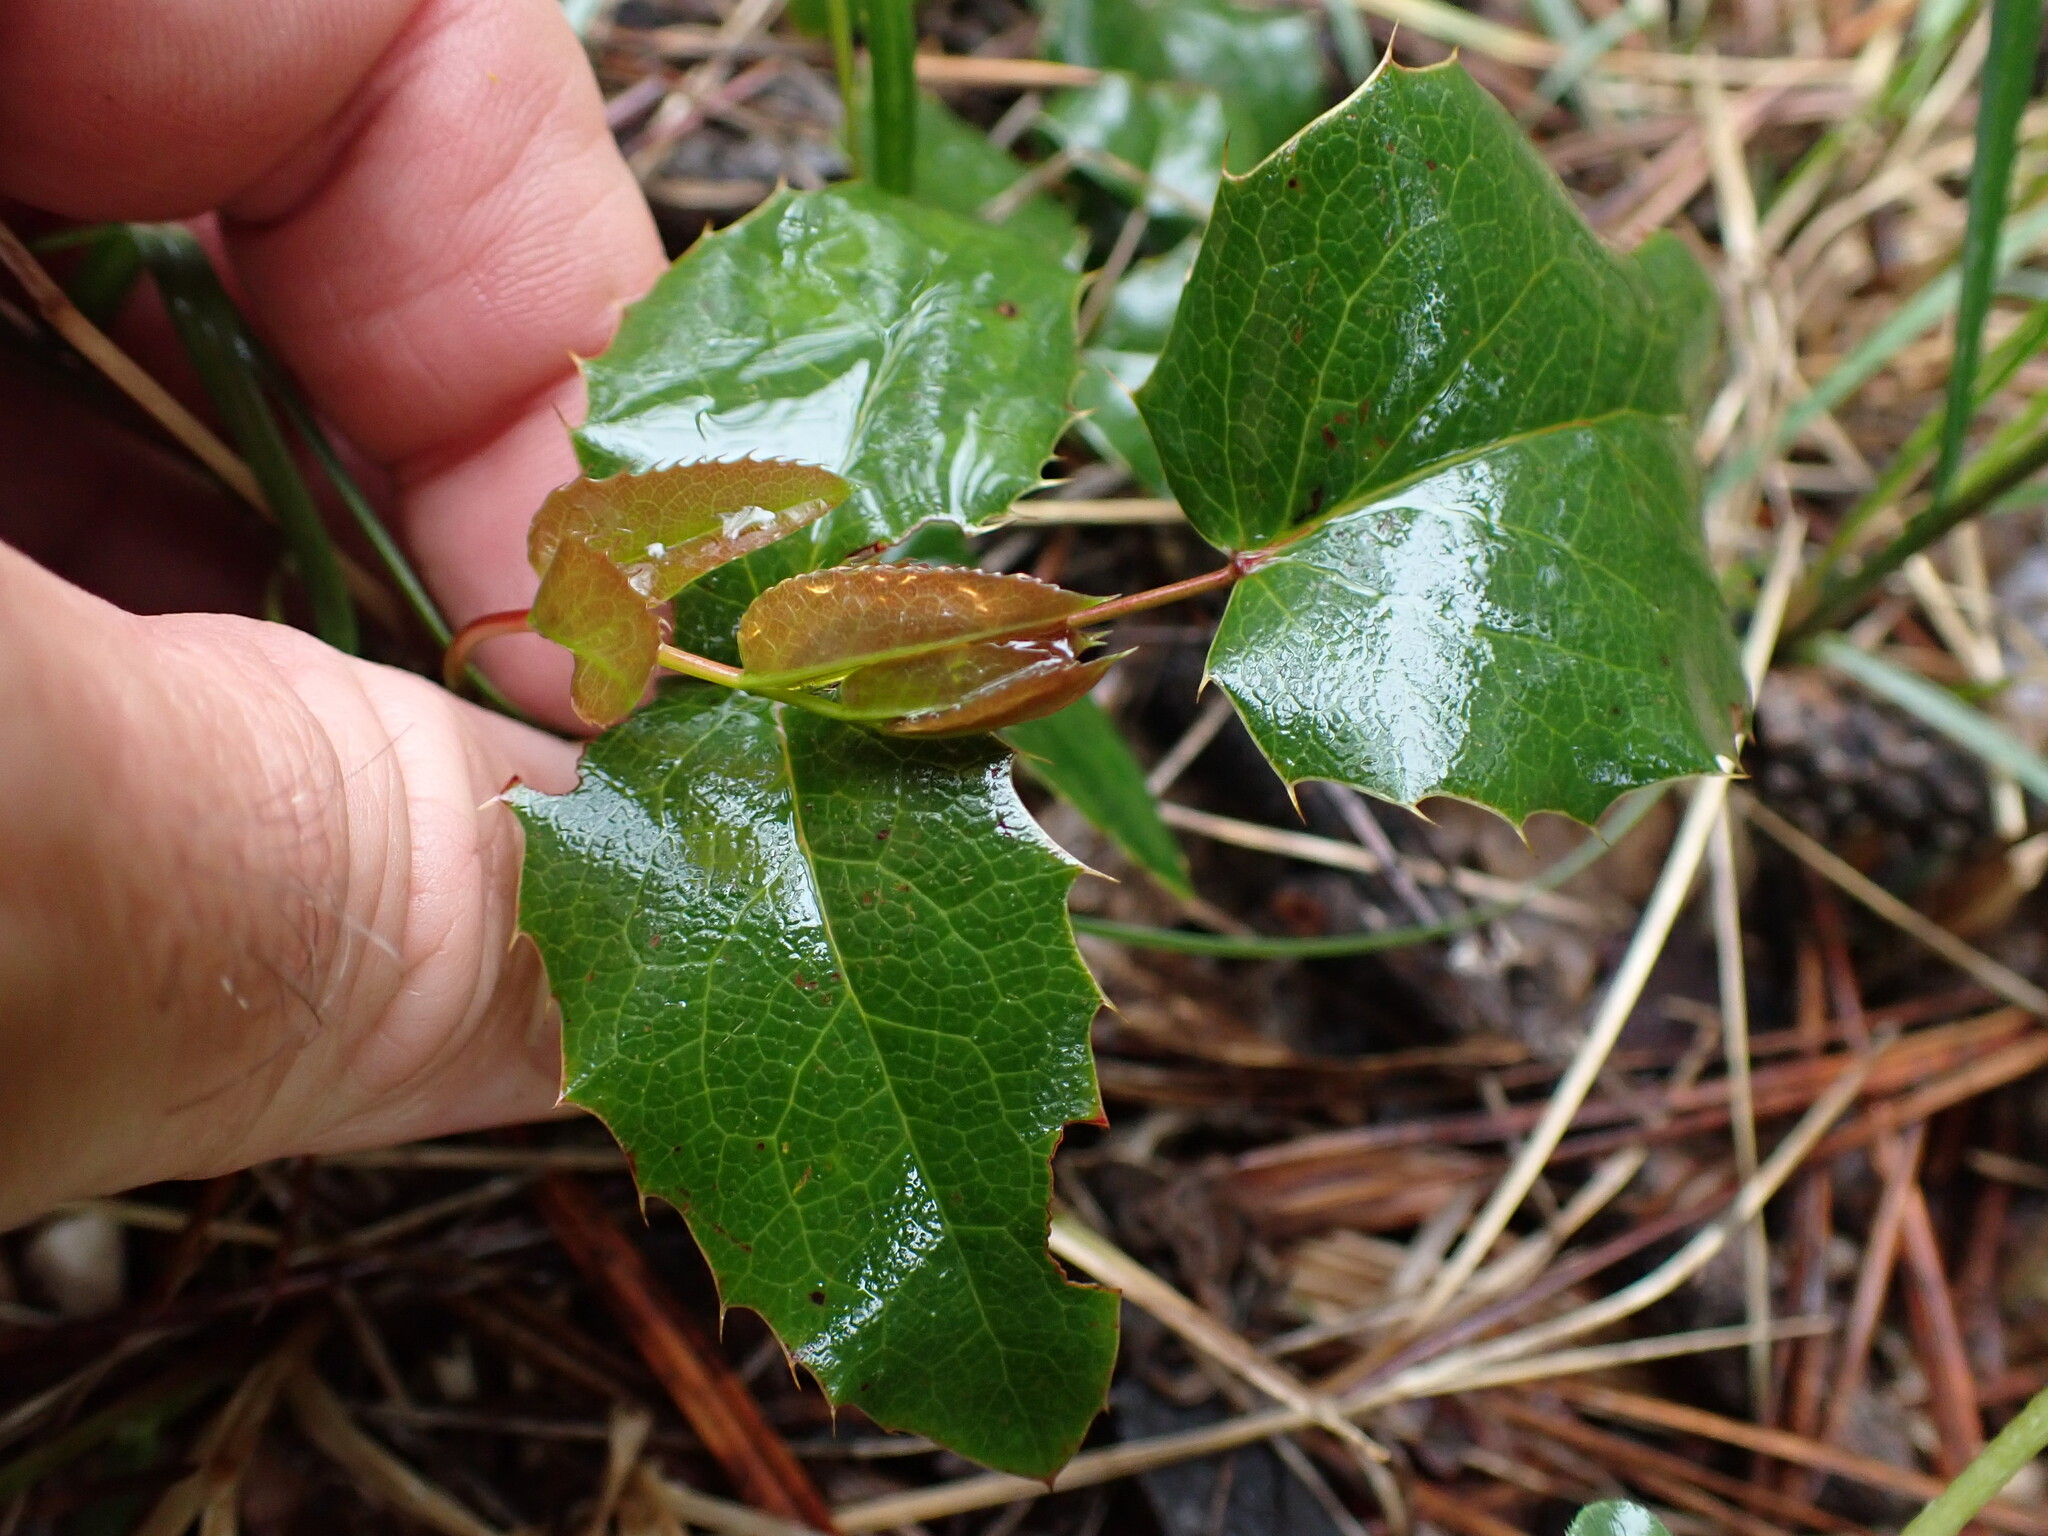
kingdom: Plantae
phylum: Tracheophyta
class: Magnoliopsida
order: Ranunculales
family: Berberidaceae
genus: Mahonia
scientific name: Mahonia aquifolium
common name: Oregon-grape
